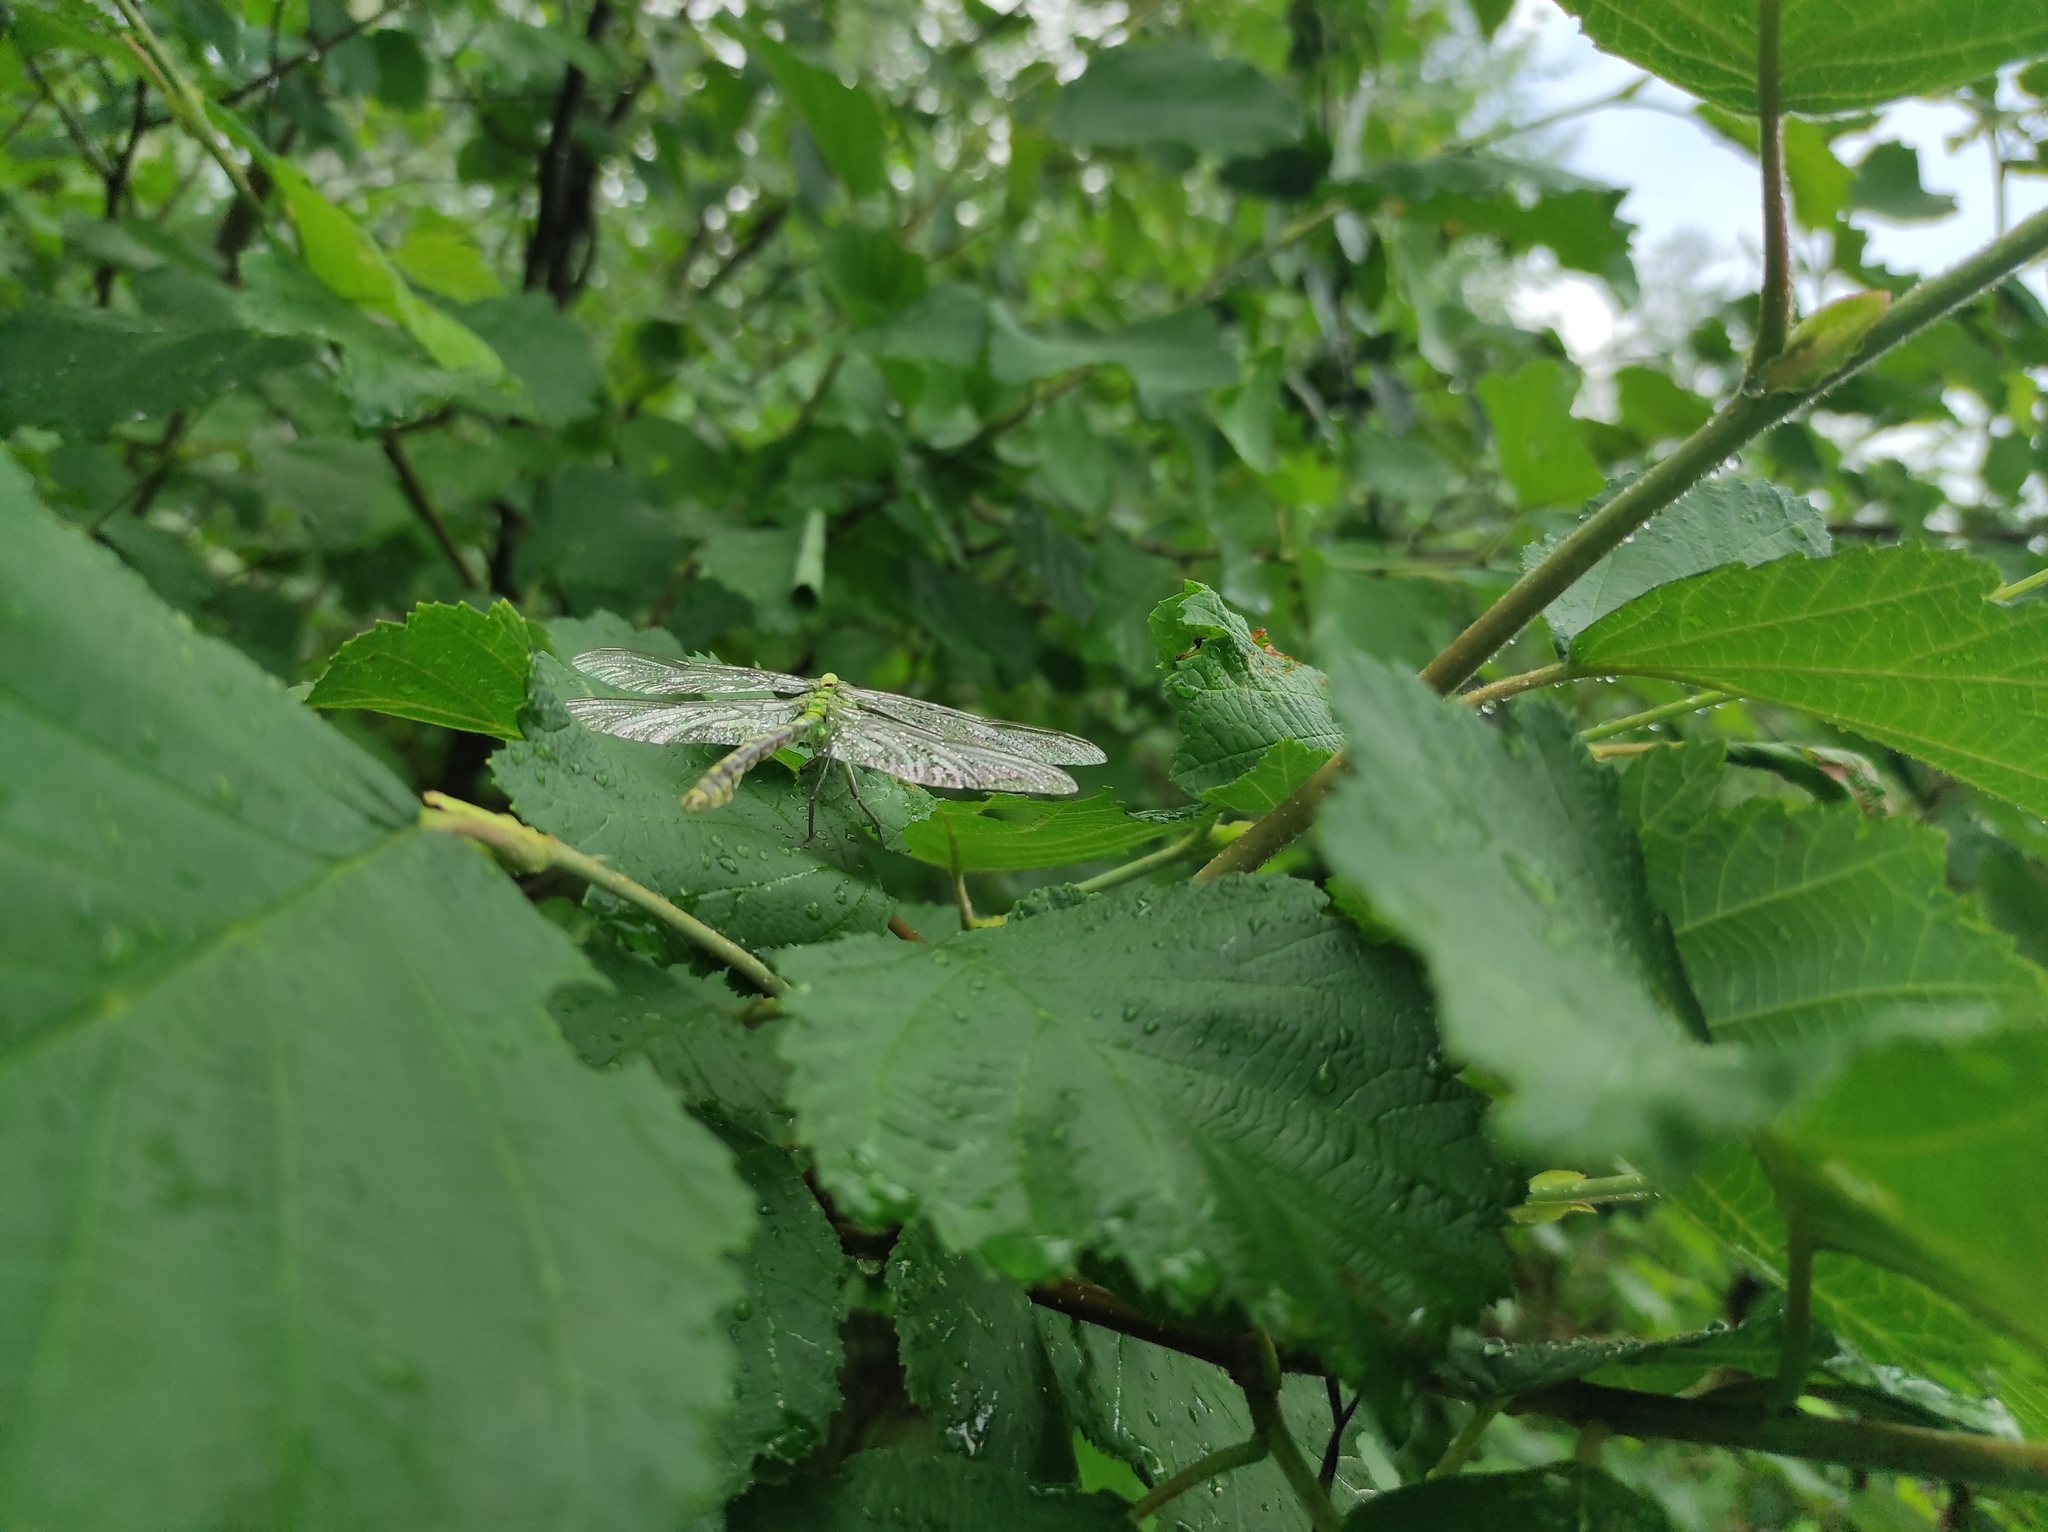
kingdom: Plantae
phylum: Tracheophyta
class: Magnoliopsida
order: Fagales
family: Betulaceae
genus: Alnus
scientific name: Alnus hirsuta
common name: Manchurian alder
